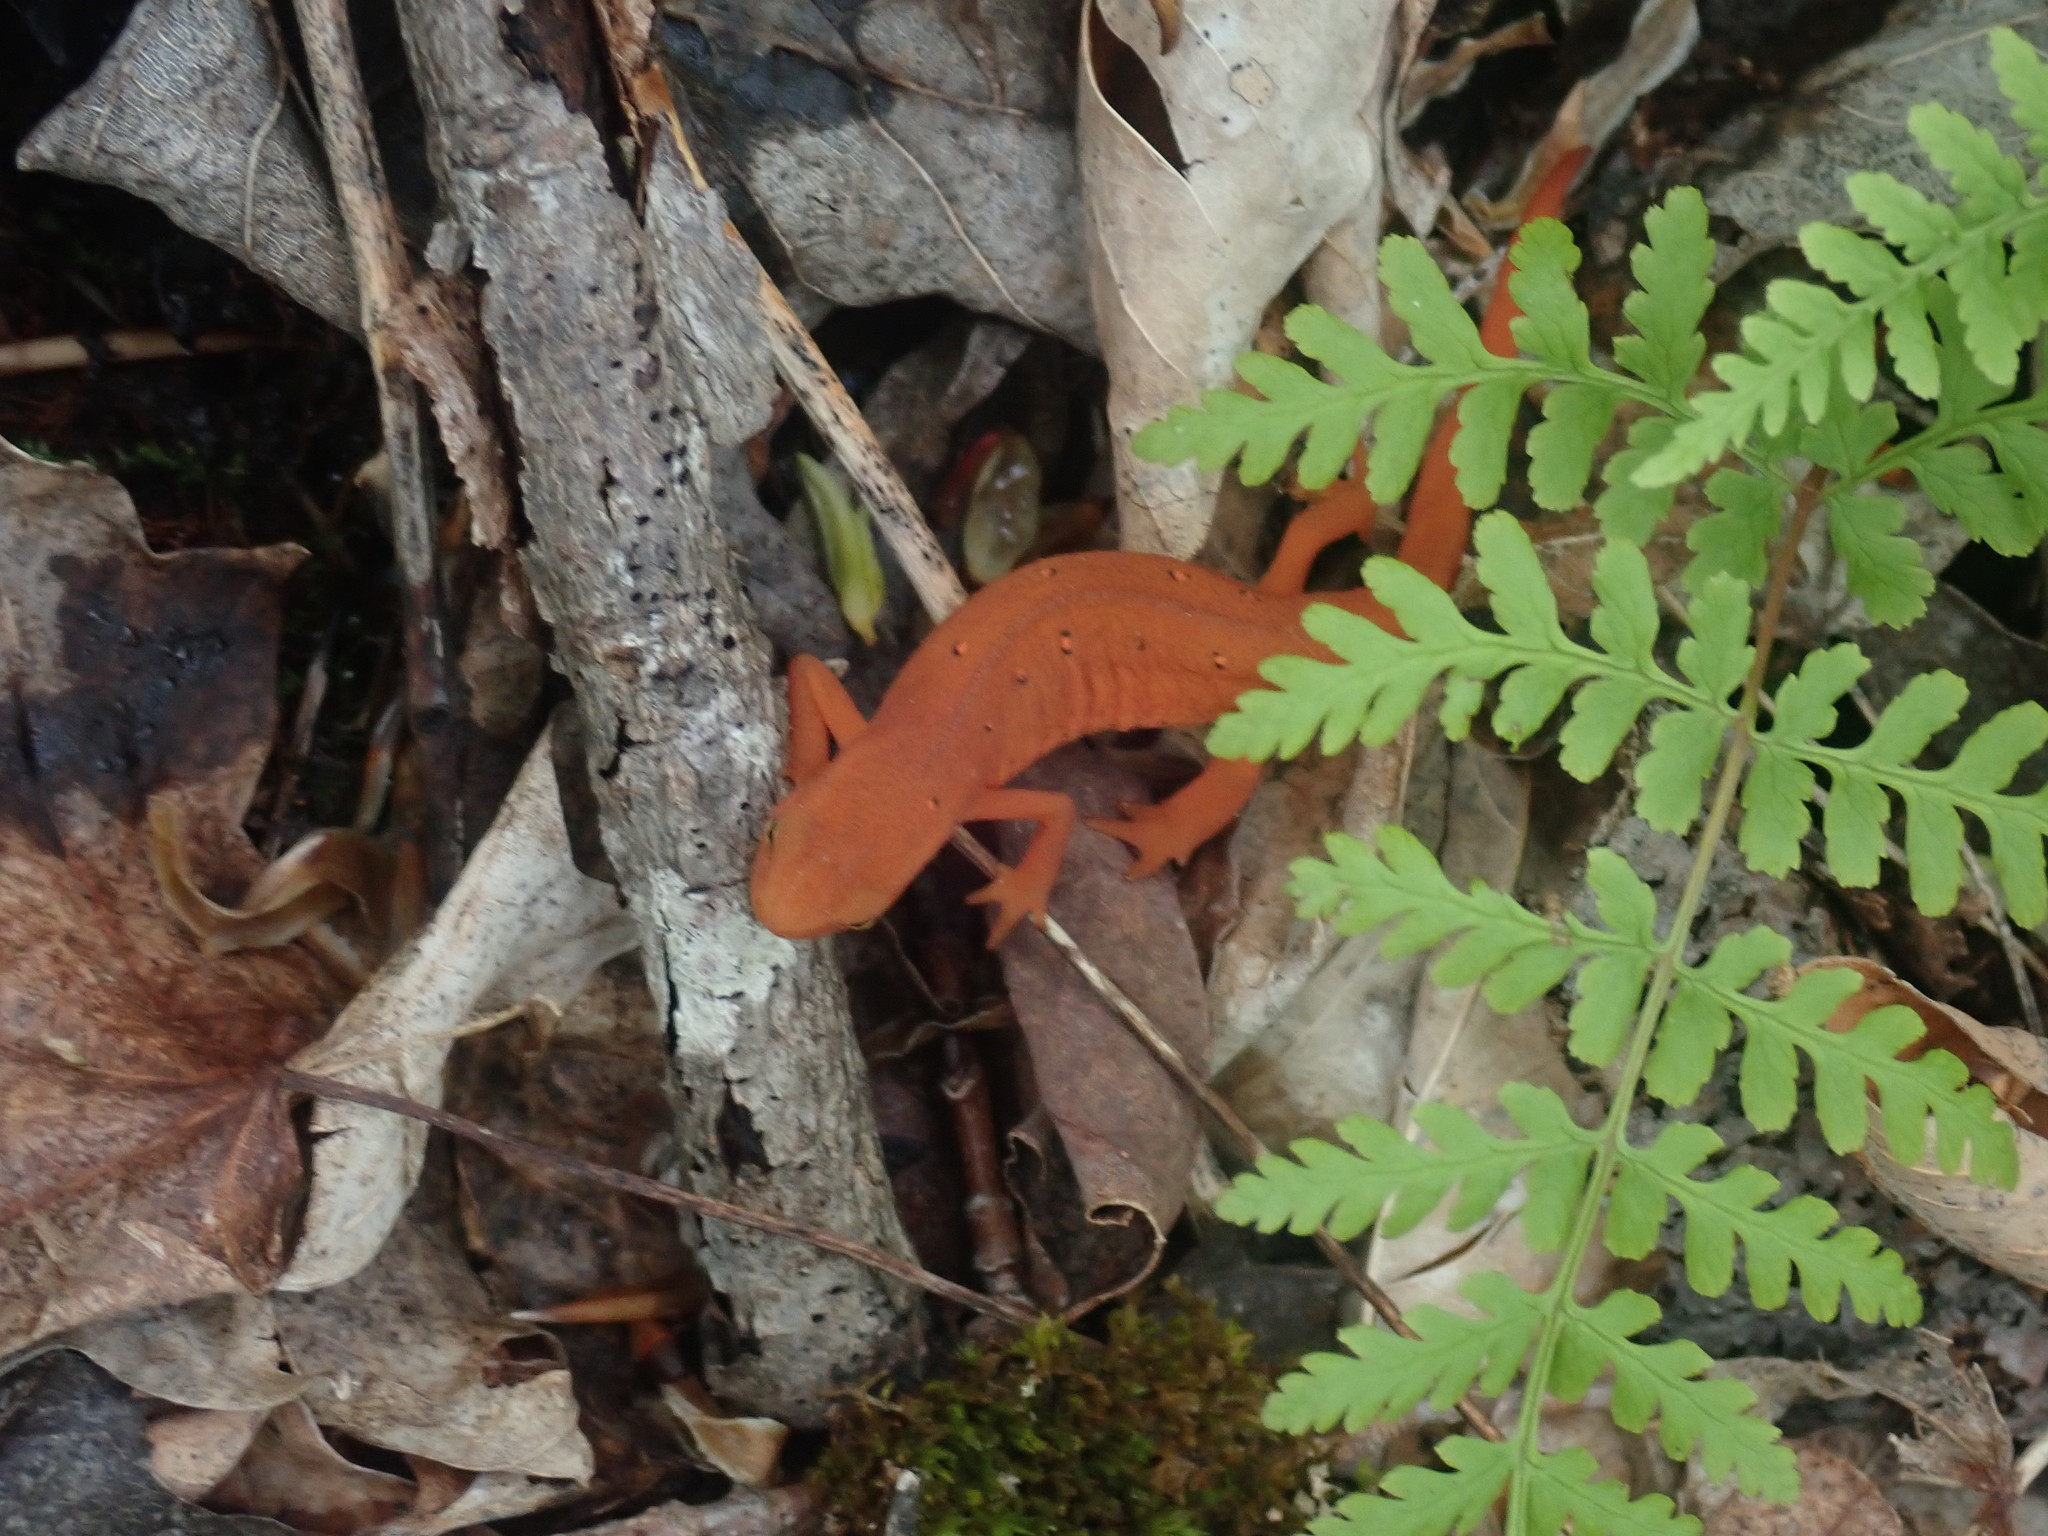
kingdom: Animalia
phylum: Chordata
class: Amphibia
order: Caudata
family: Salamandridae
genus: Notophthalmus
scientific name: Notophthalmus viridescens
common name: Eastern newt
